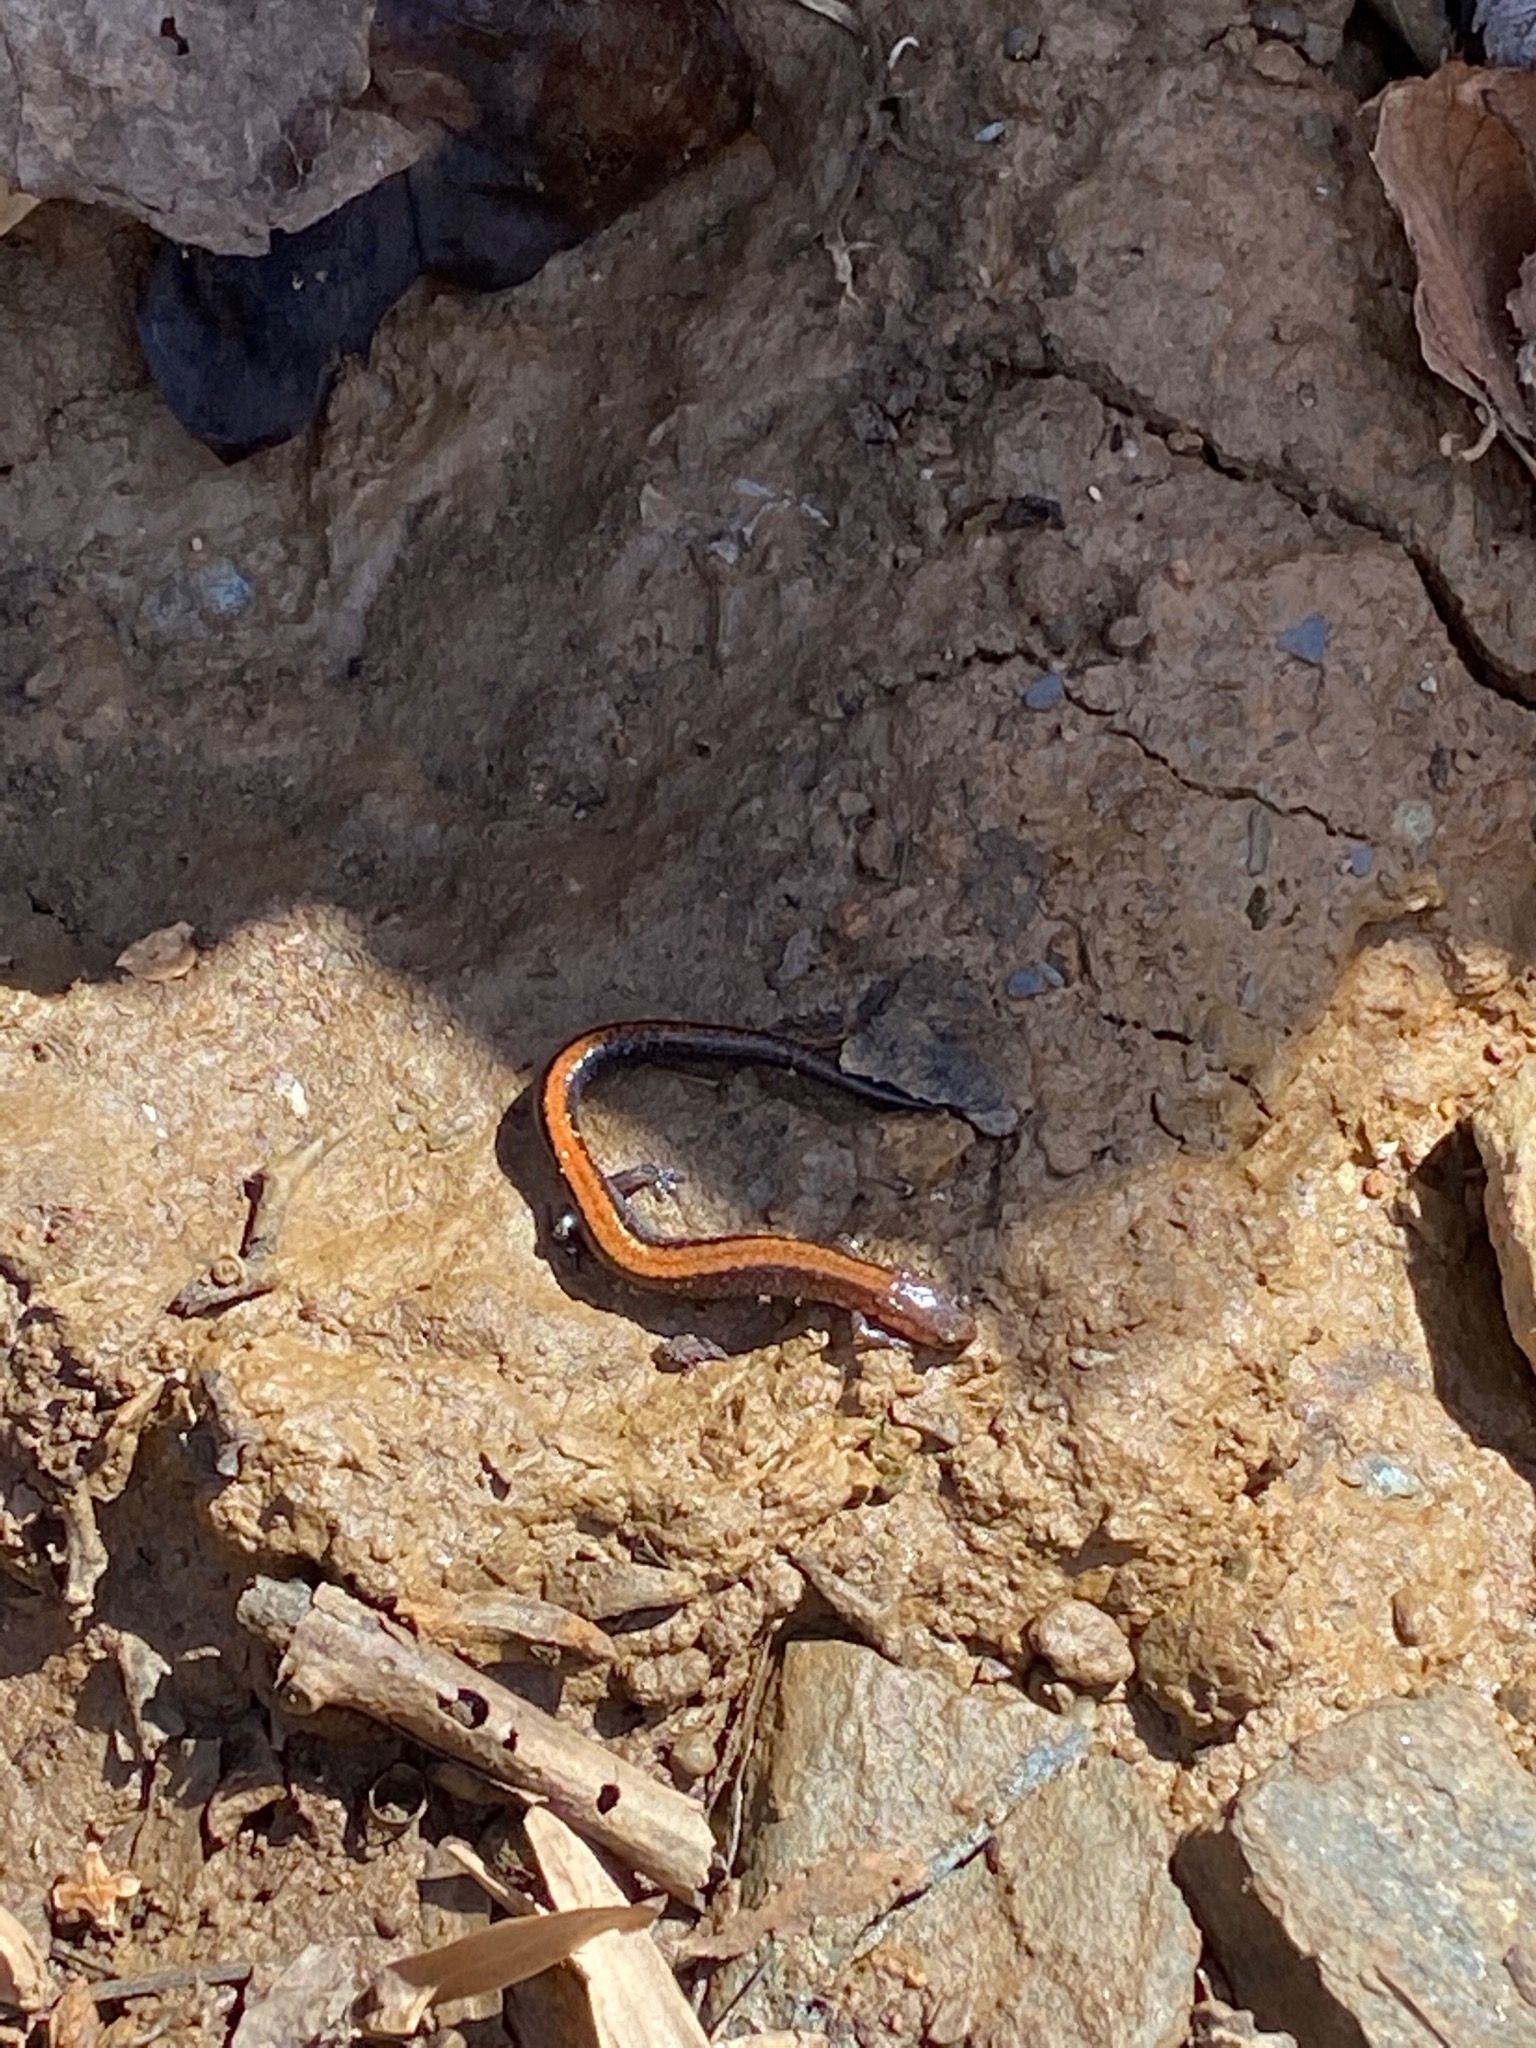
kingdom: Animalia
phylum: Chordata
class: Amphibia
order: Caudata
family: Plethodontidae
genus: Plethodon
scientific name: Plethodon cinereus
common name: Redback salamander
